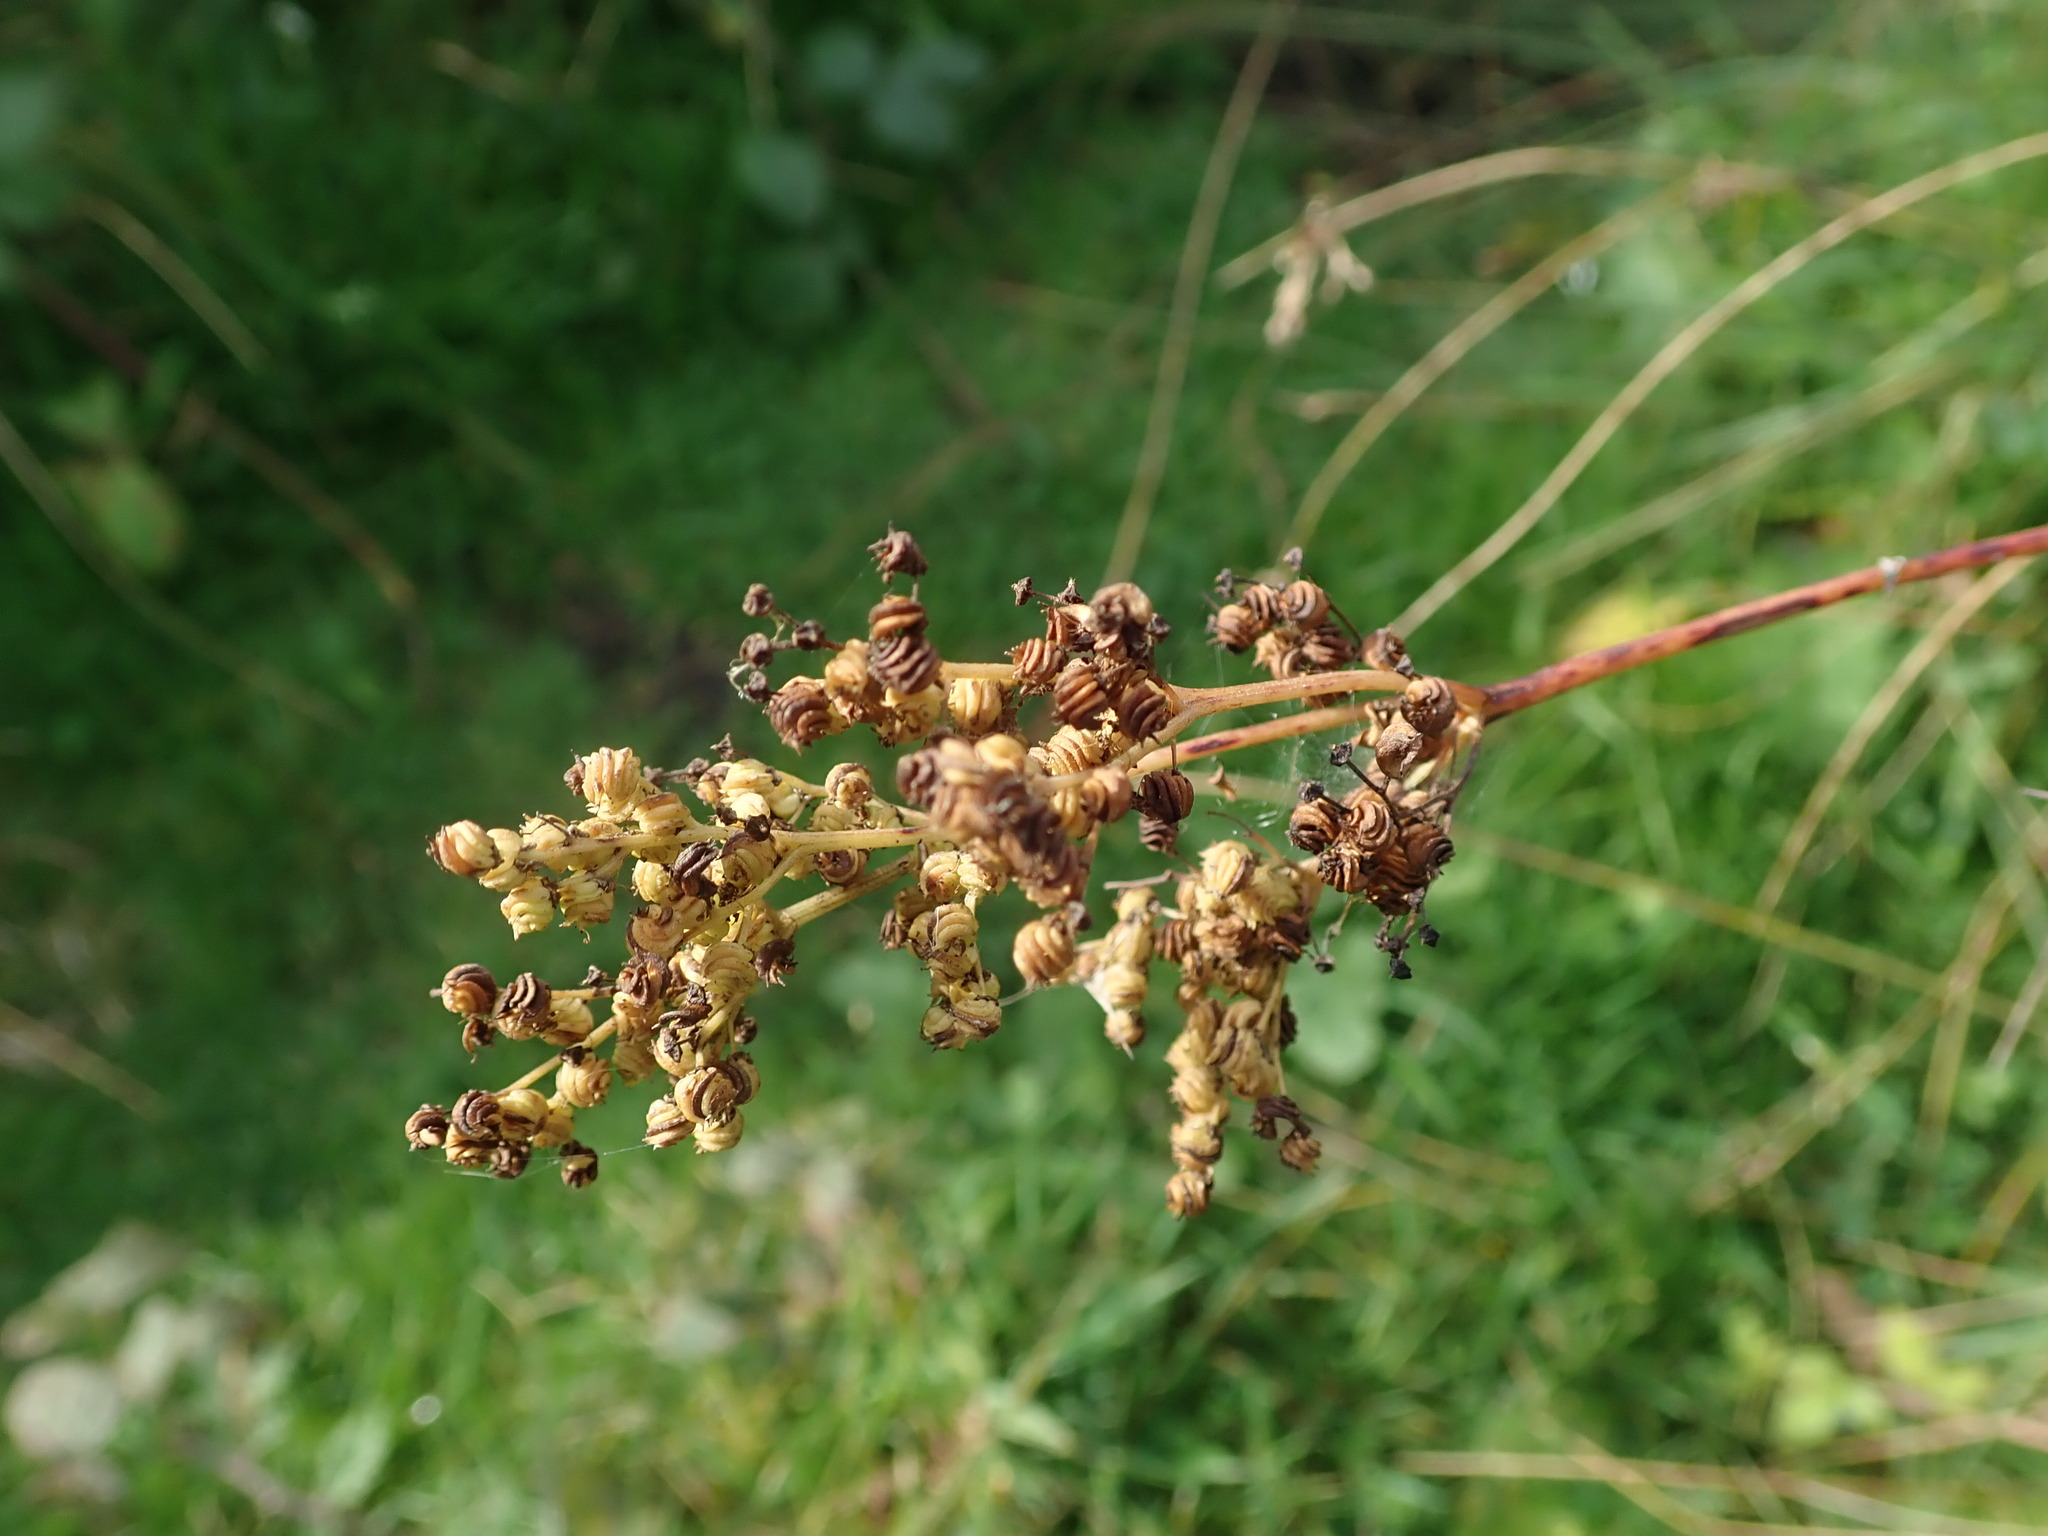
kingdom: Plantae
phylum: Tracheophyta
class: Magnoliopsida
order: Rosales
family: Rosaceae
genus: Filipendula
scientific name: Filipendula ulmaria
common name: Meadowsweet
